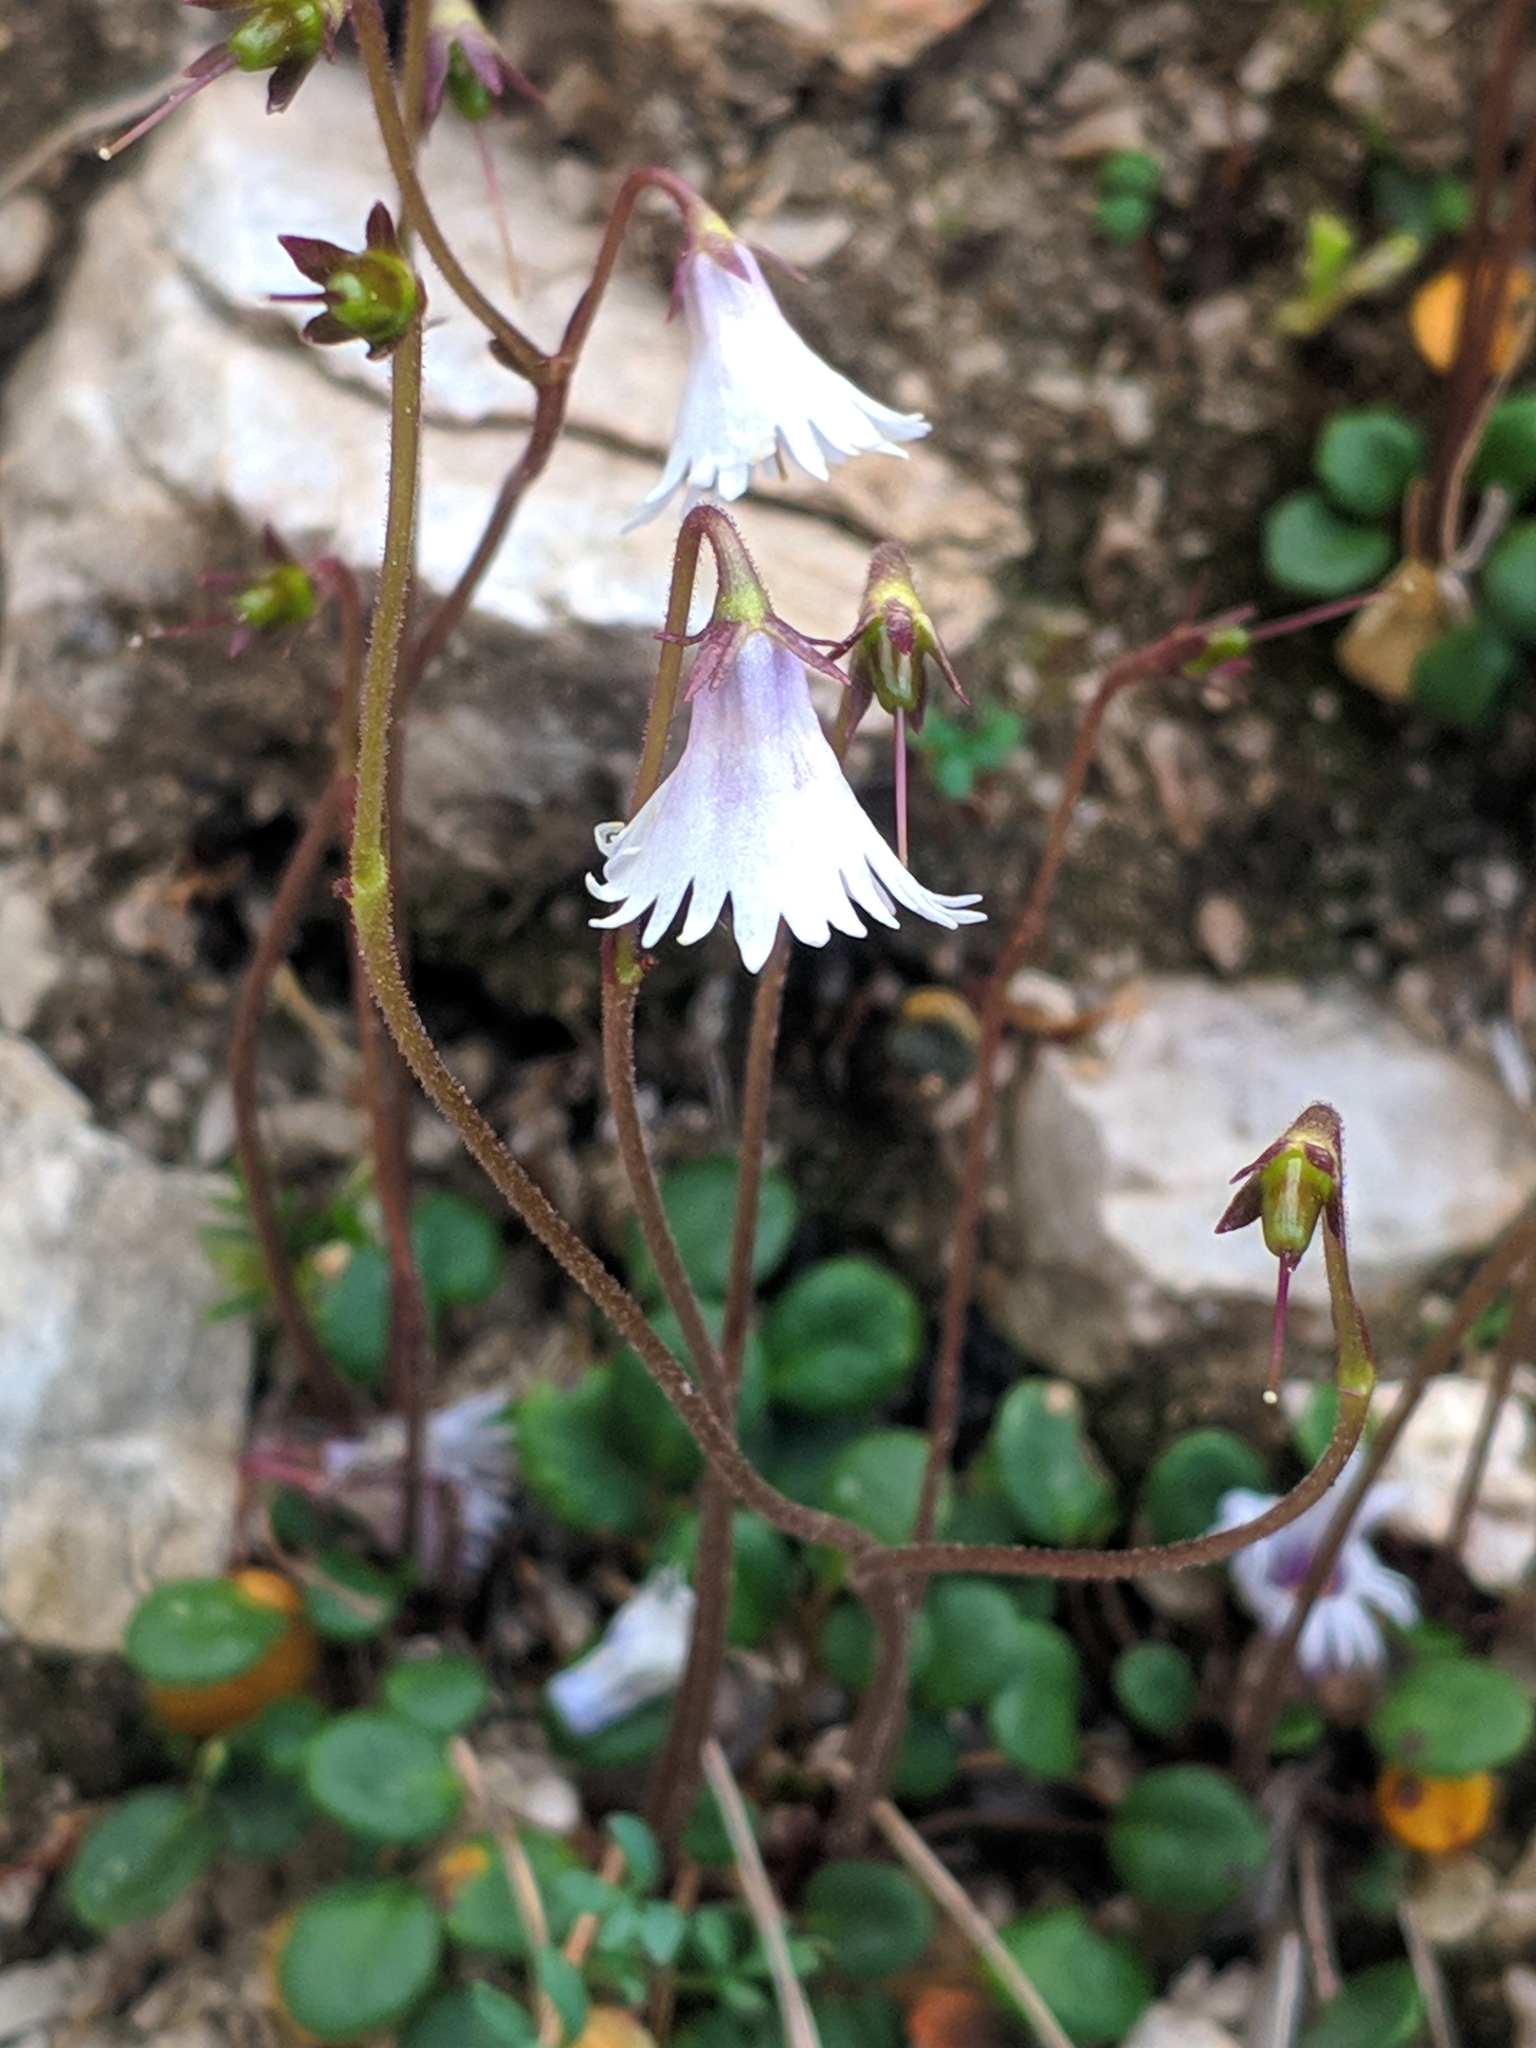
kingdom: Plantae
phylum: Tracheophyta
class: Magnoliopsida
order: Ericales
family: Primulaceae
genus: Soldanella
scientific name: Soldanella minima
